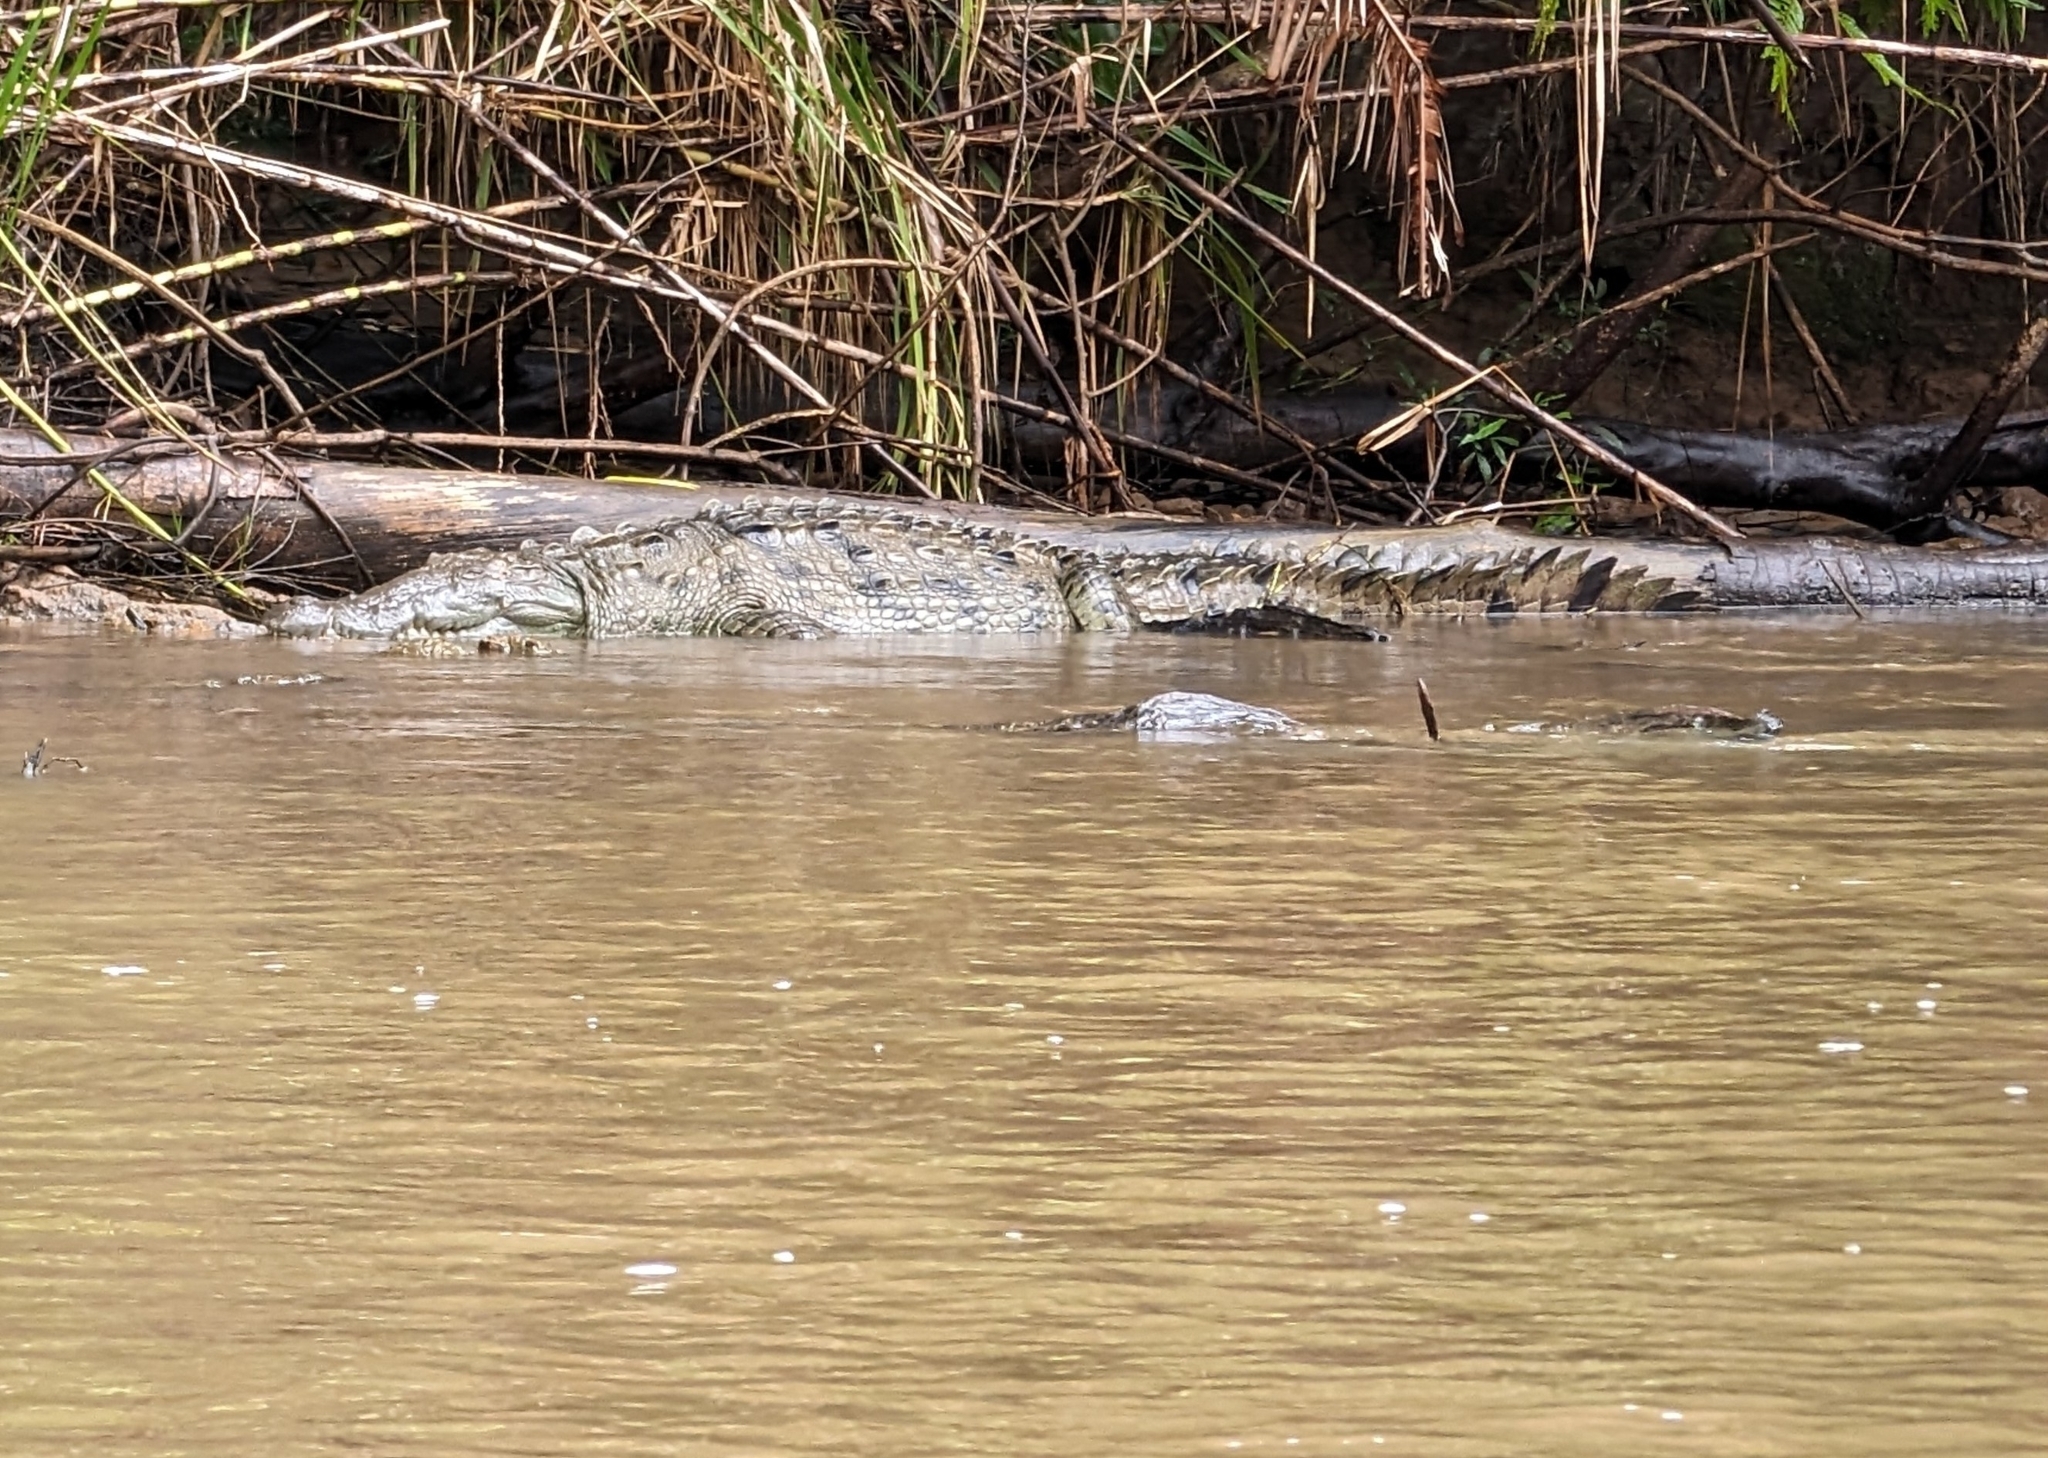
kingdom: Animalia
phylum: Chordata
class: Crocodylia
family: Crocodylidae
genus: Crocodylus
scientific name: Crocodylus acutus
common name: American crocodile
